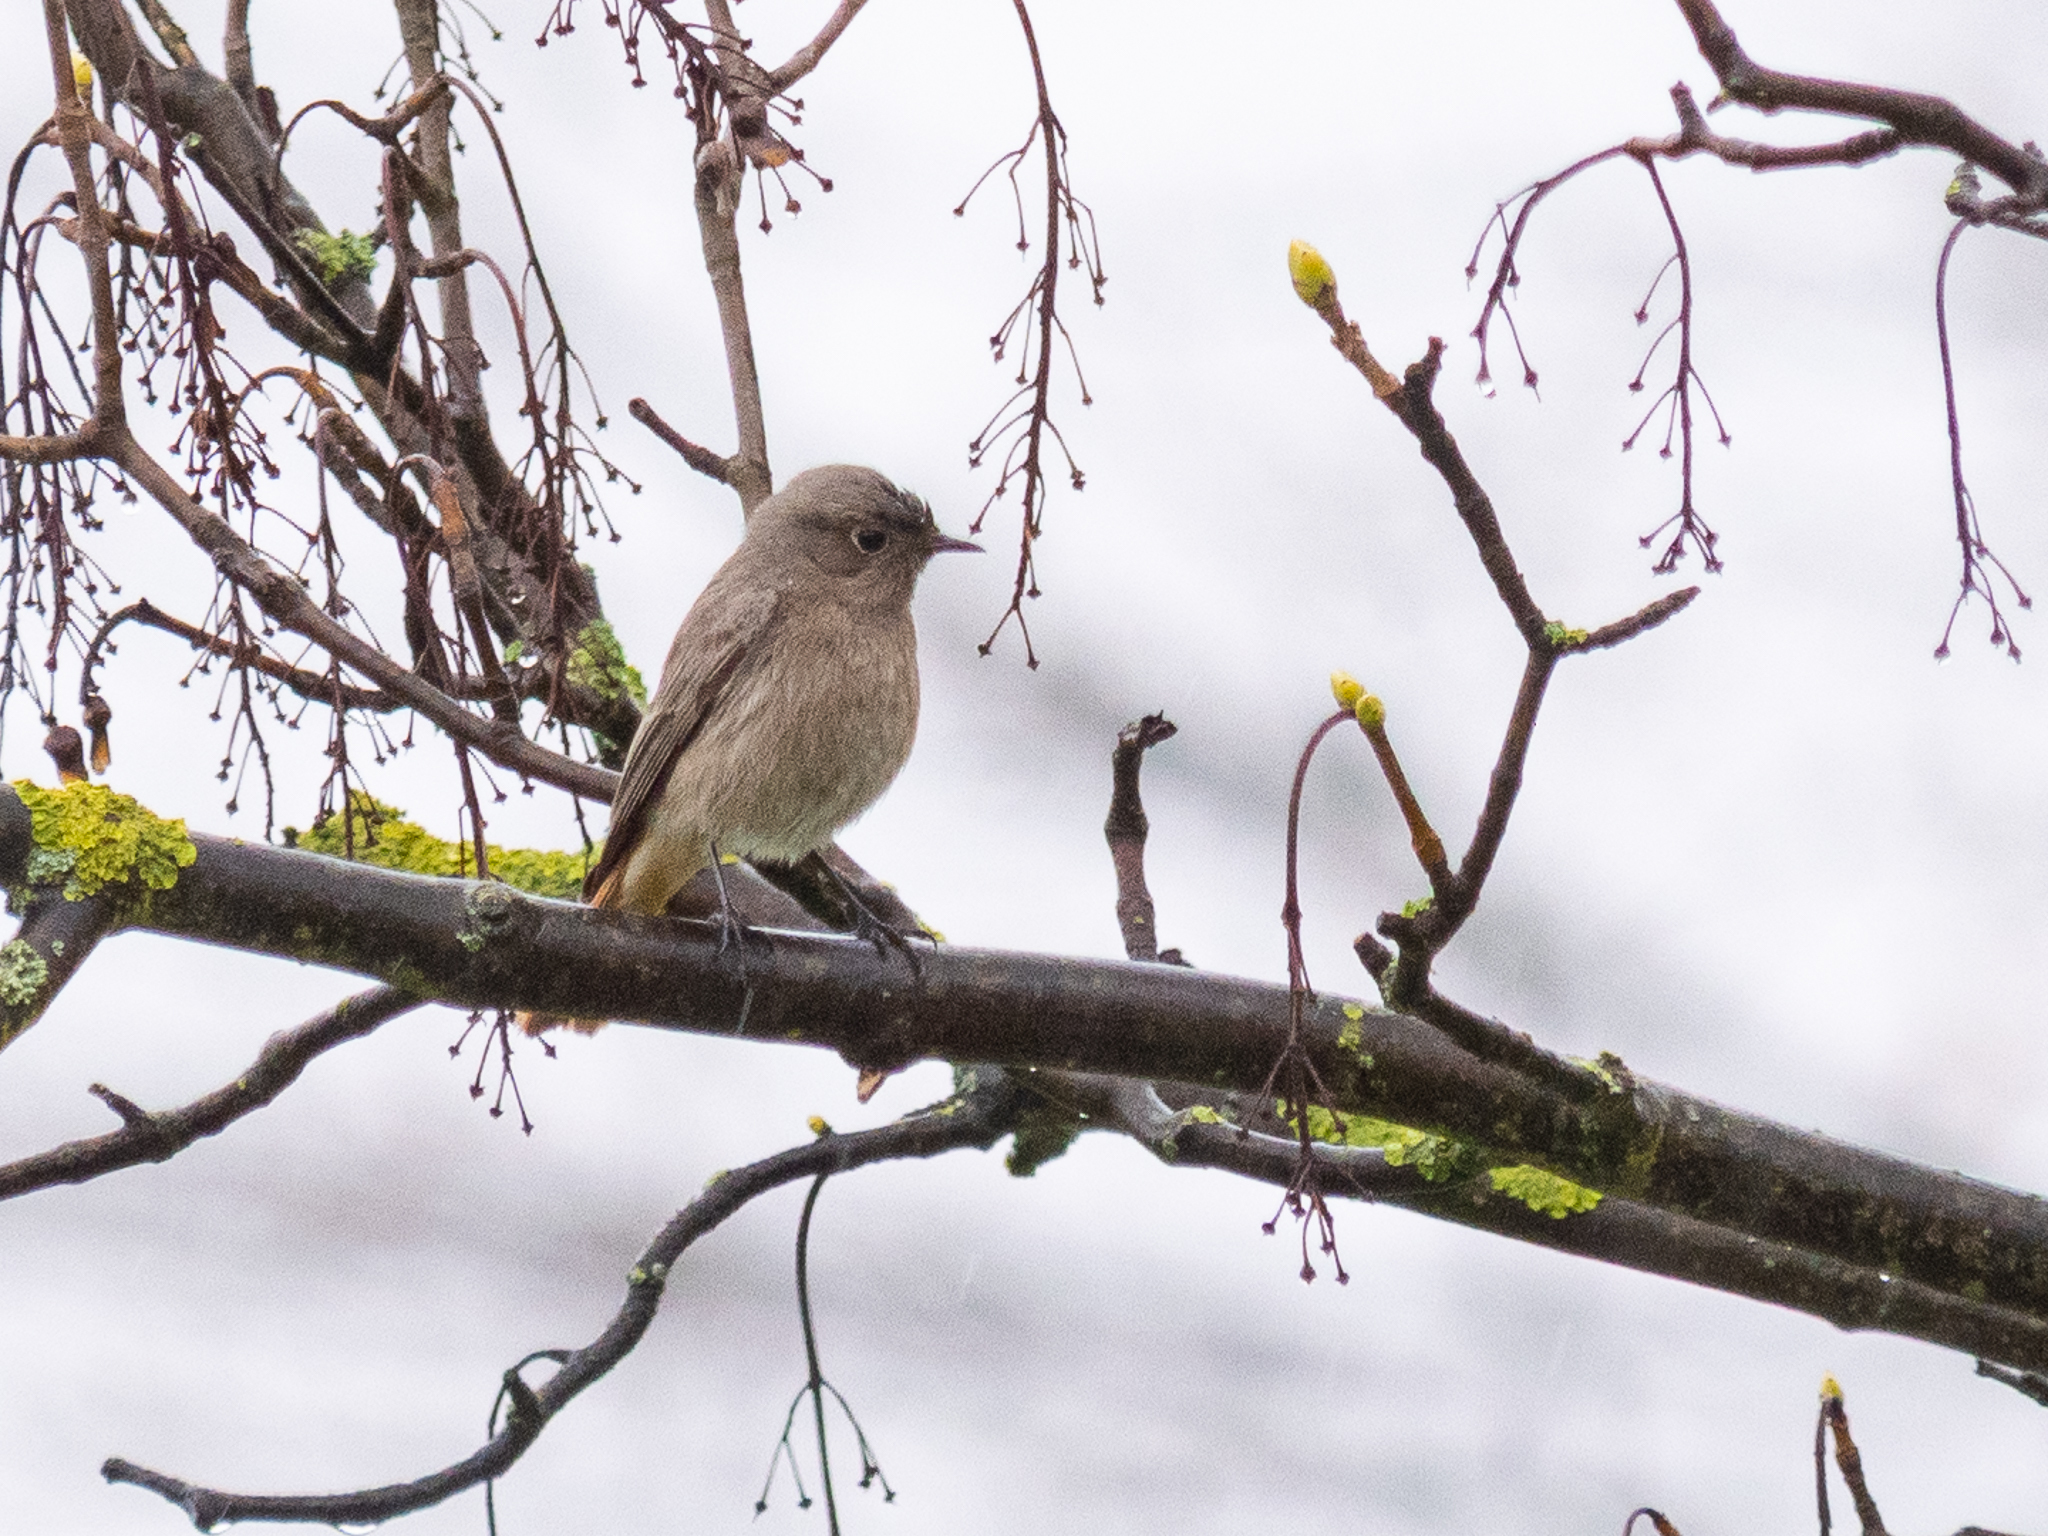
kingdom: Animalia
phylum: Chordata
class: Aves
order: Passeriformes
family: Muscicapidae
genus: Phoenicurus
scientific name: Phoenicurus ochruros
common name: Black redstart
